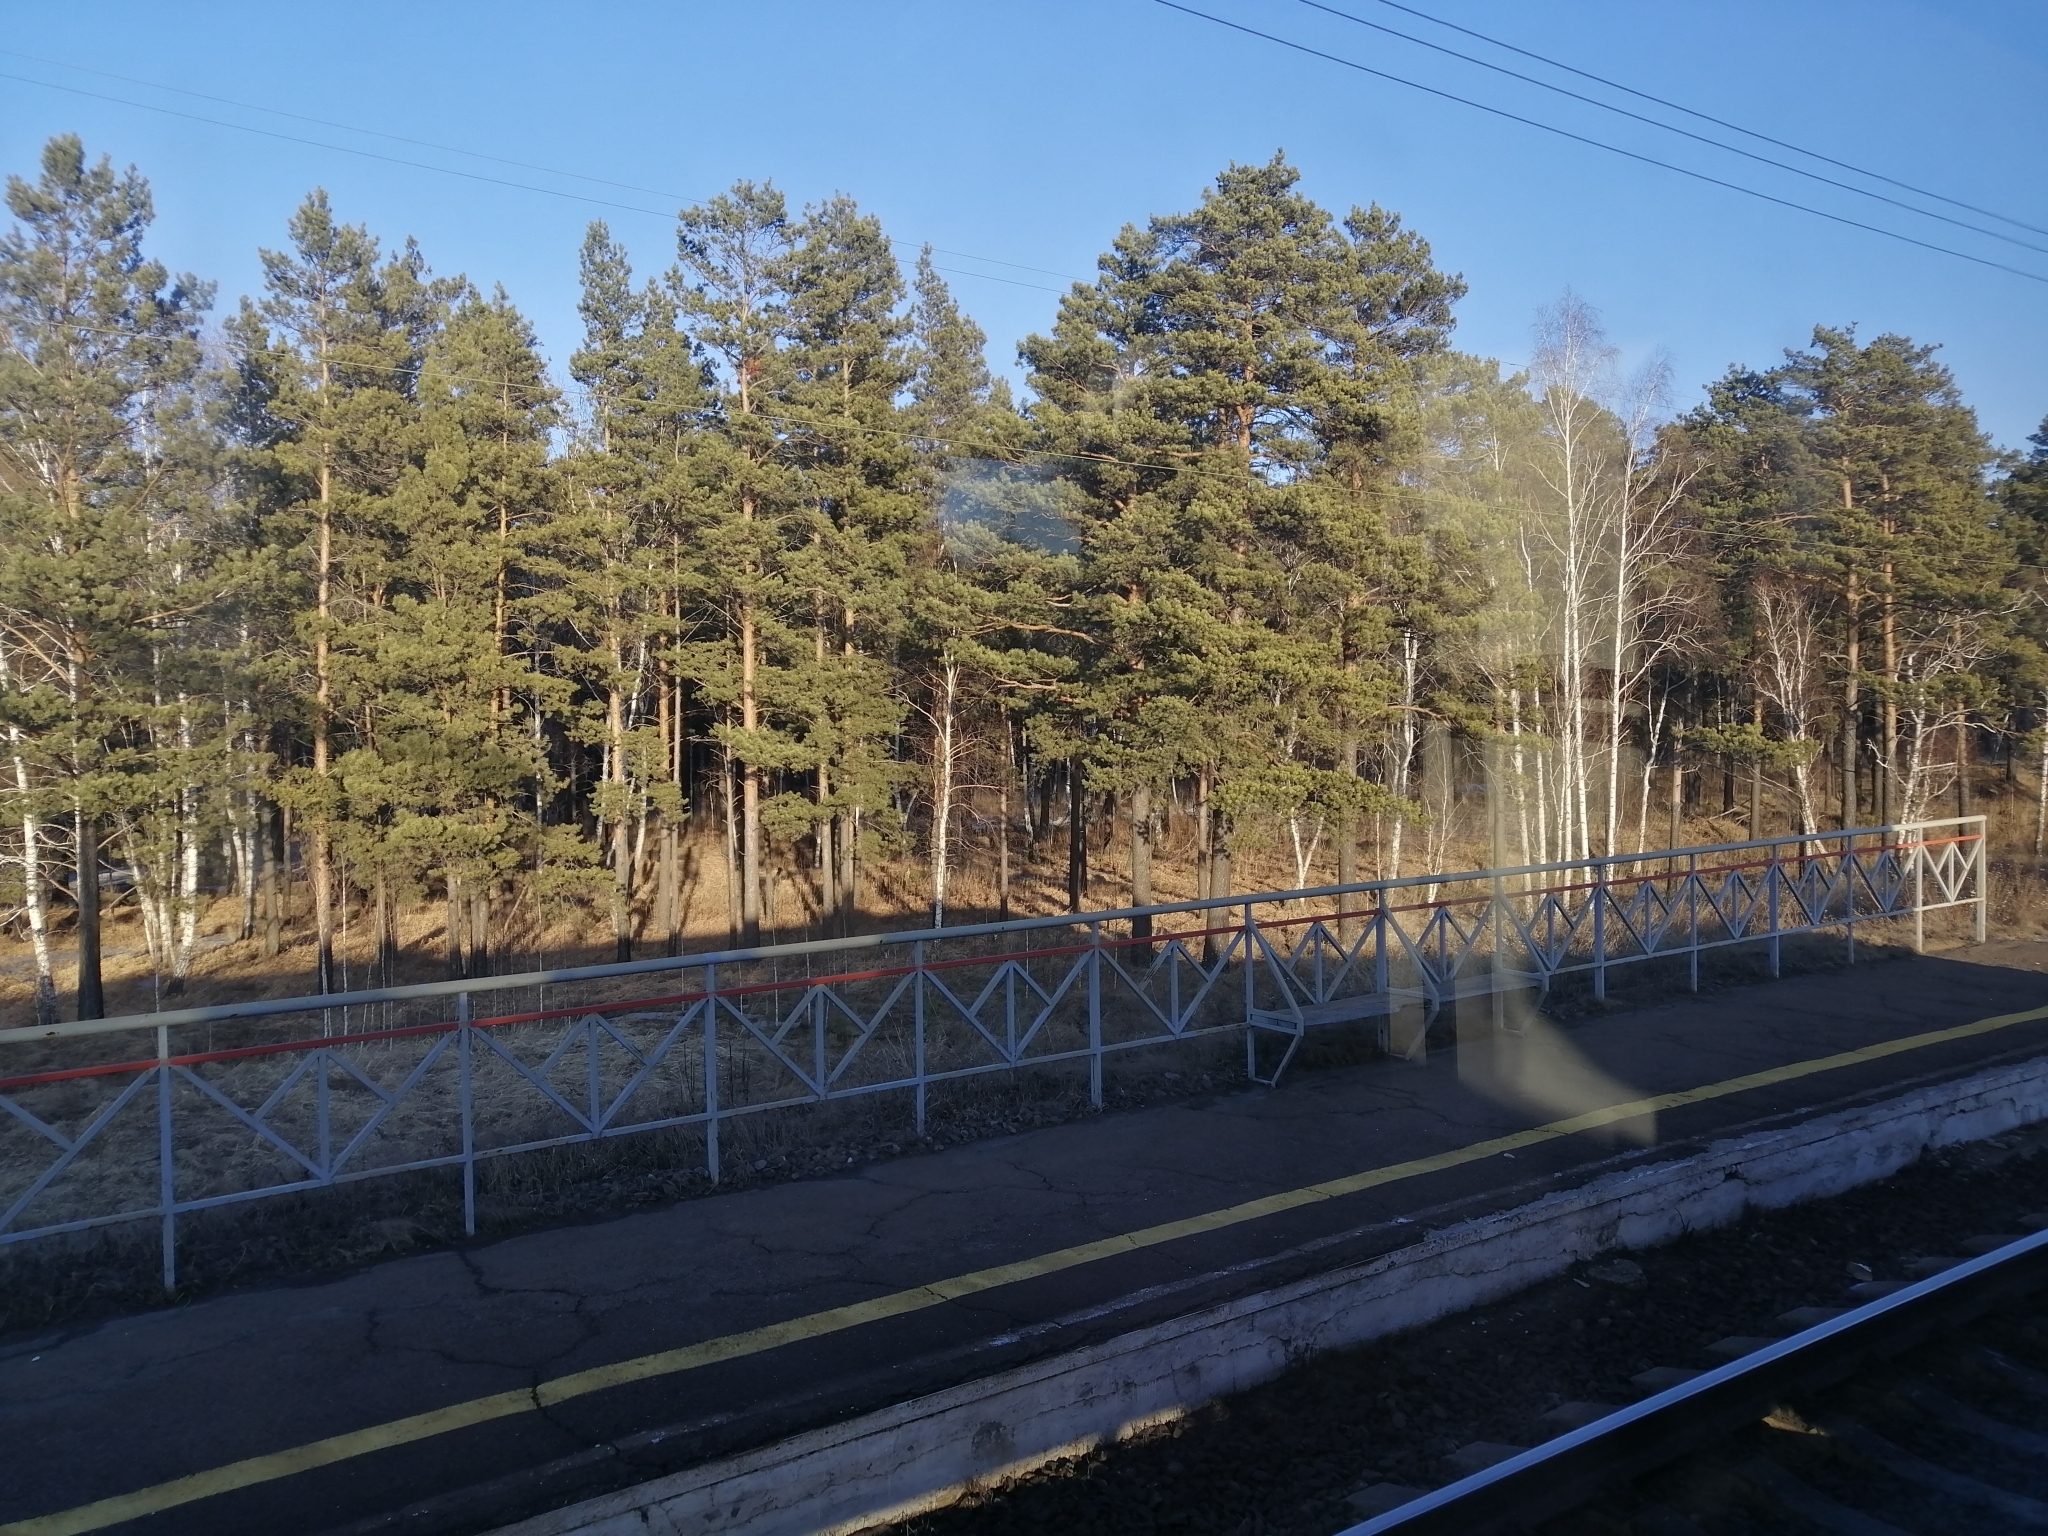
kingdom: Plantae
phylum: Tracheophyta
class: Pinopsida
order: Pinales
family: Pinaceae
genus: Pinus
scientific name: Pinus sylvestris
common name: Scots pine
